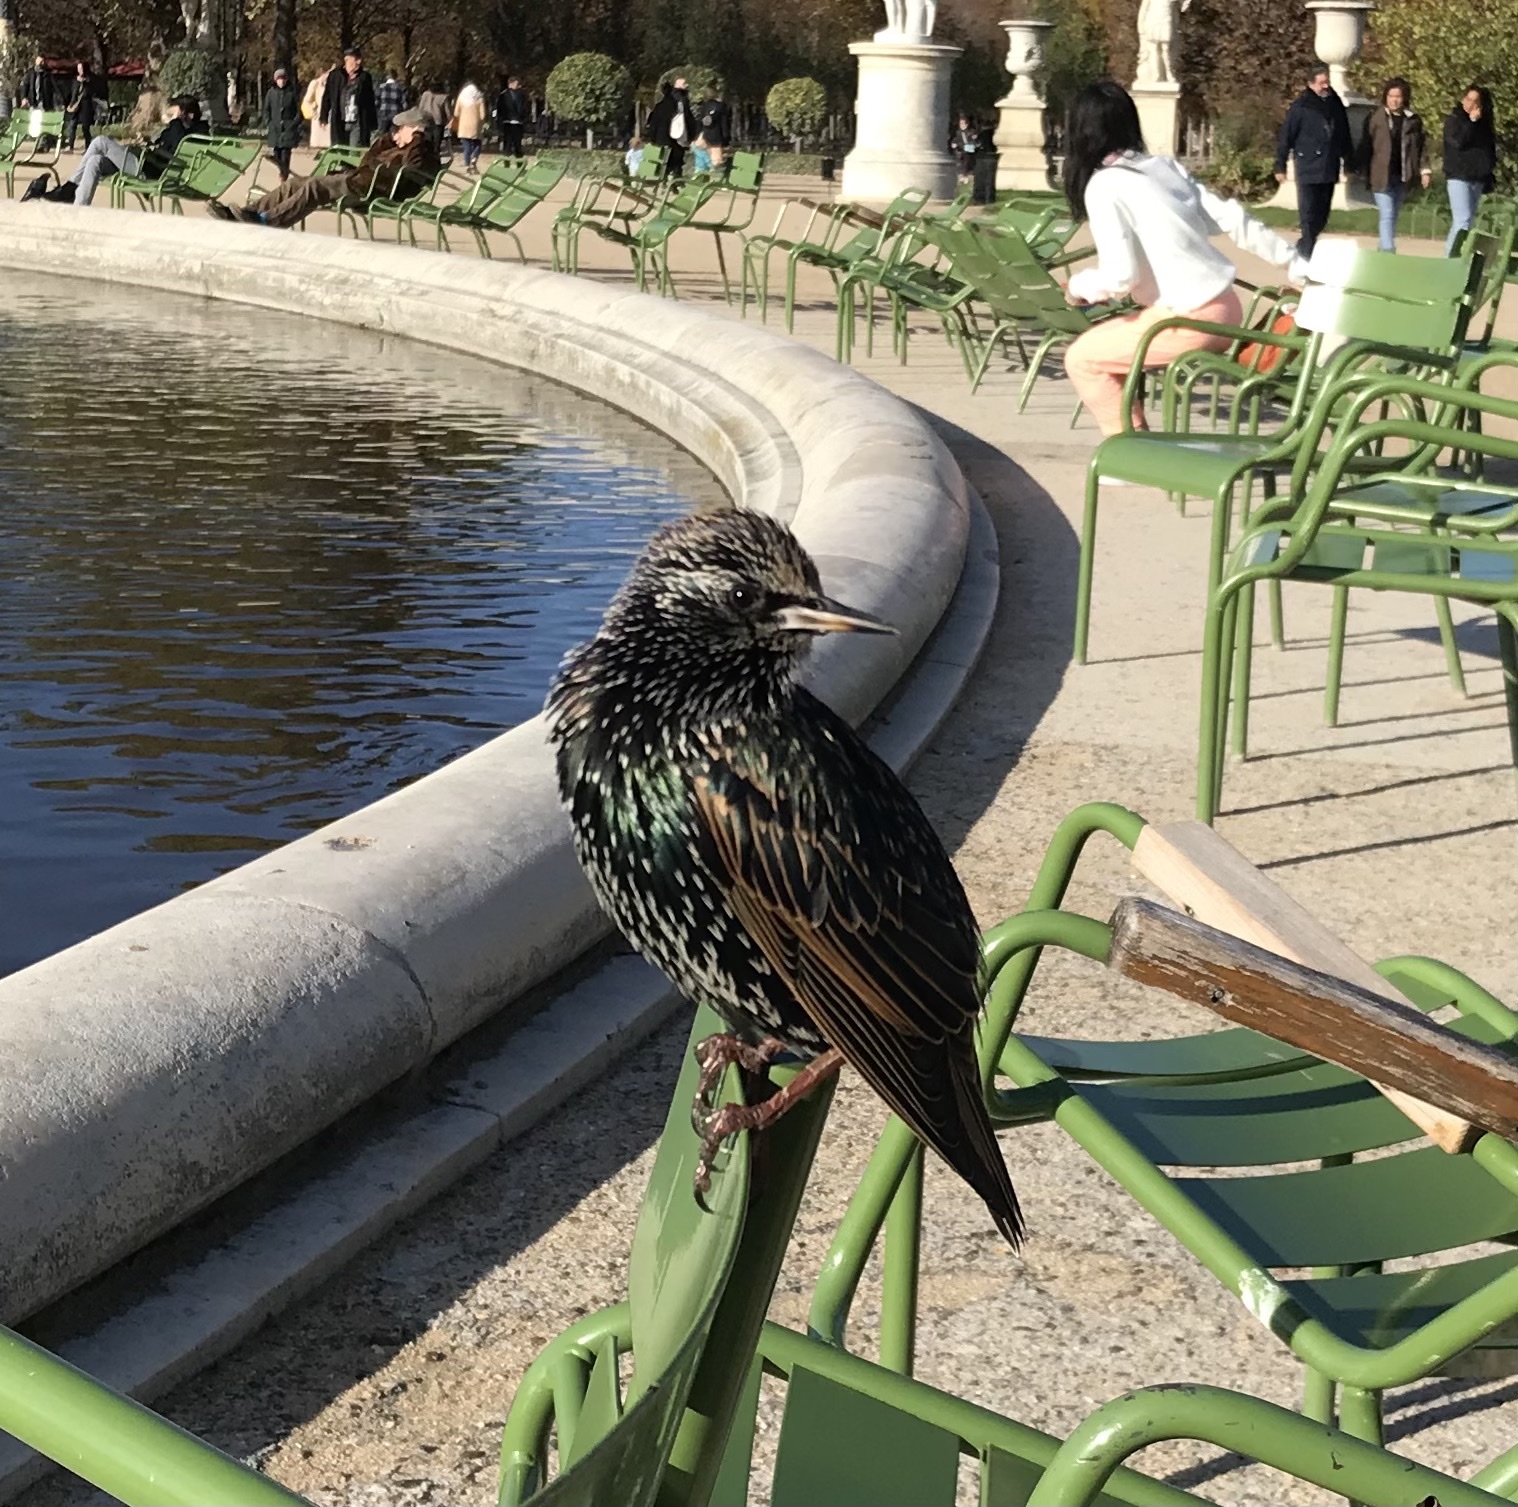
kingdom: Animalia
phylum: Chordata
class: Aves
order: Passeriformes
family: Sturnidae
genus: Sturnus
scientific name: Sturnus vulgaris
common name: Common starling
